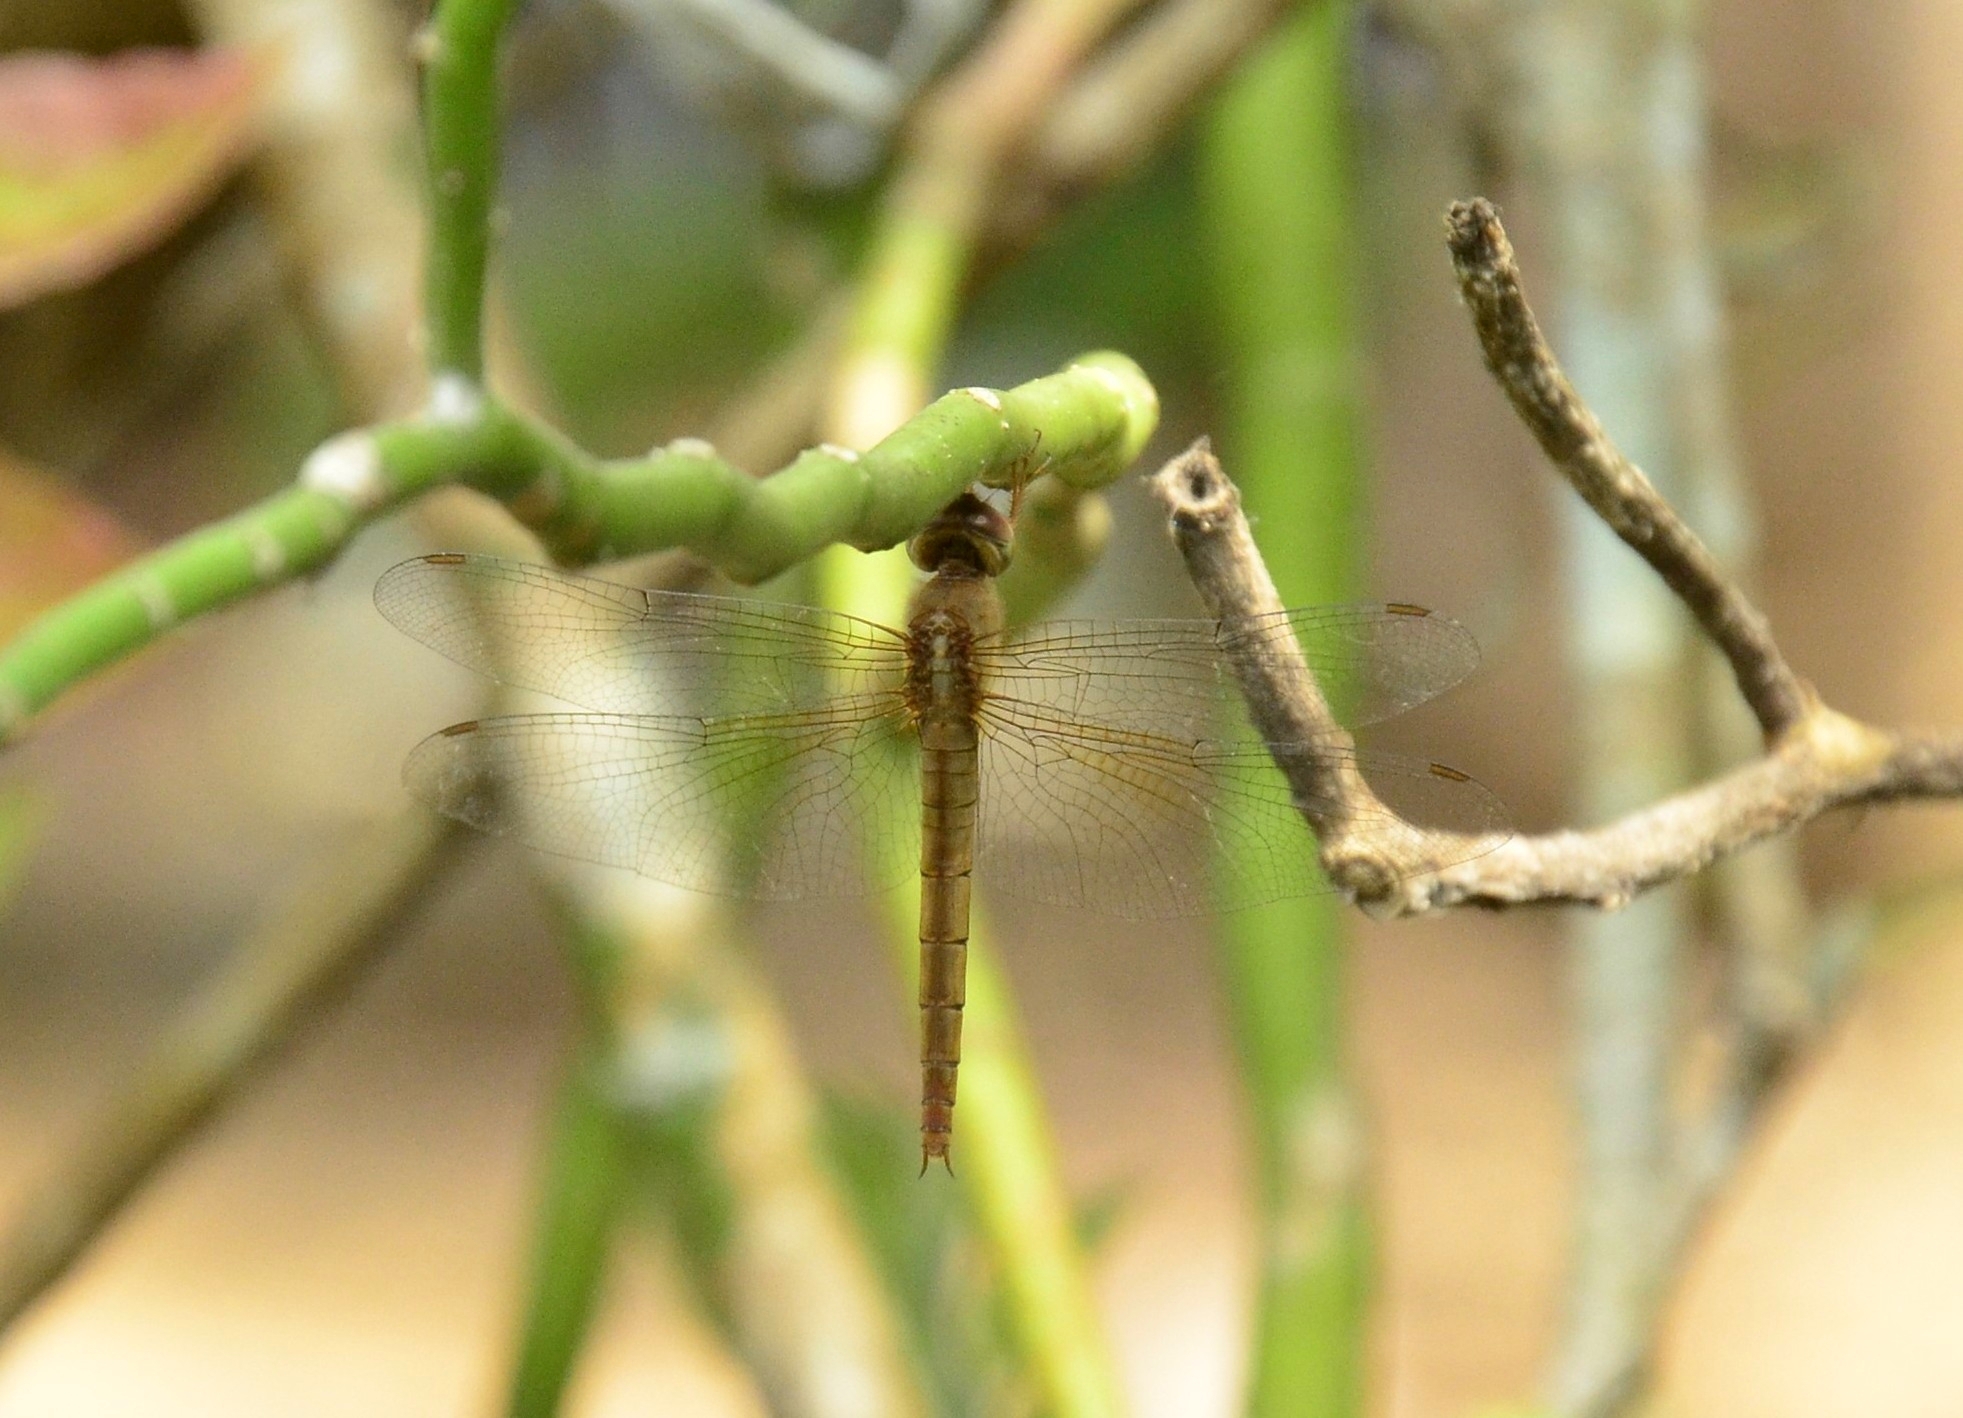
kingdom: Animalia
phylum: Arthropoda
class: Insecta
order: Odonata
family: Libellulidae
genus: Tholymis
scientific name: Tholymis tillarga
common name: Coral-tailed cloud wing
